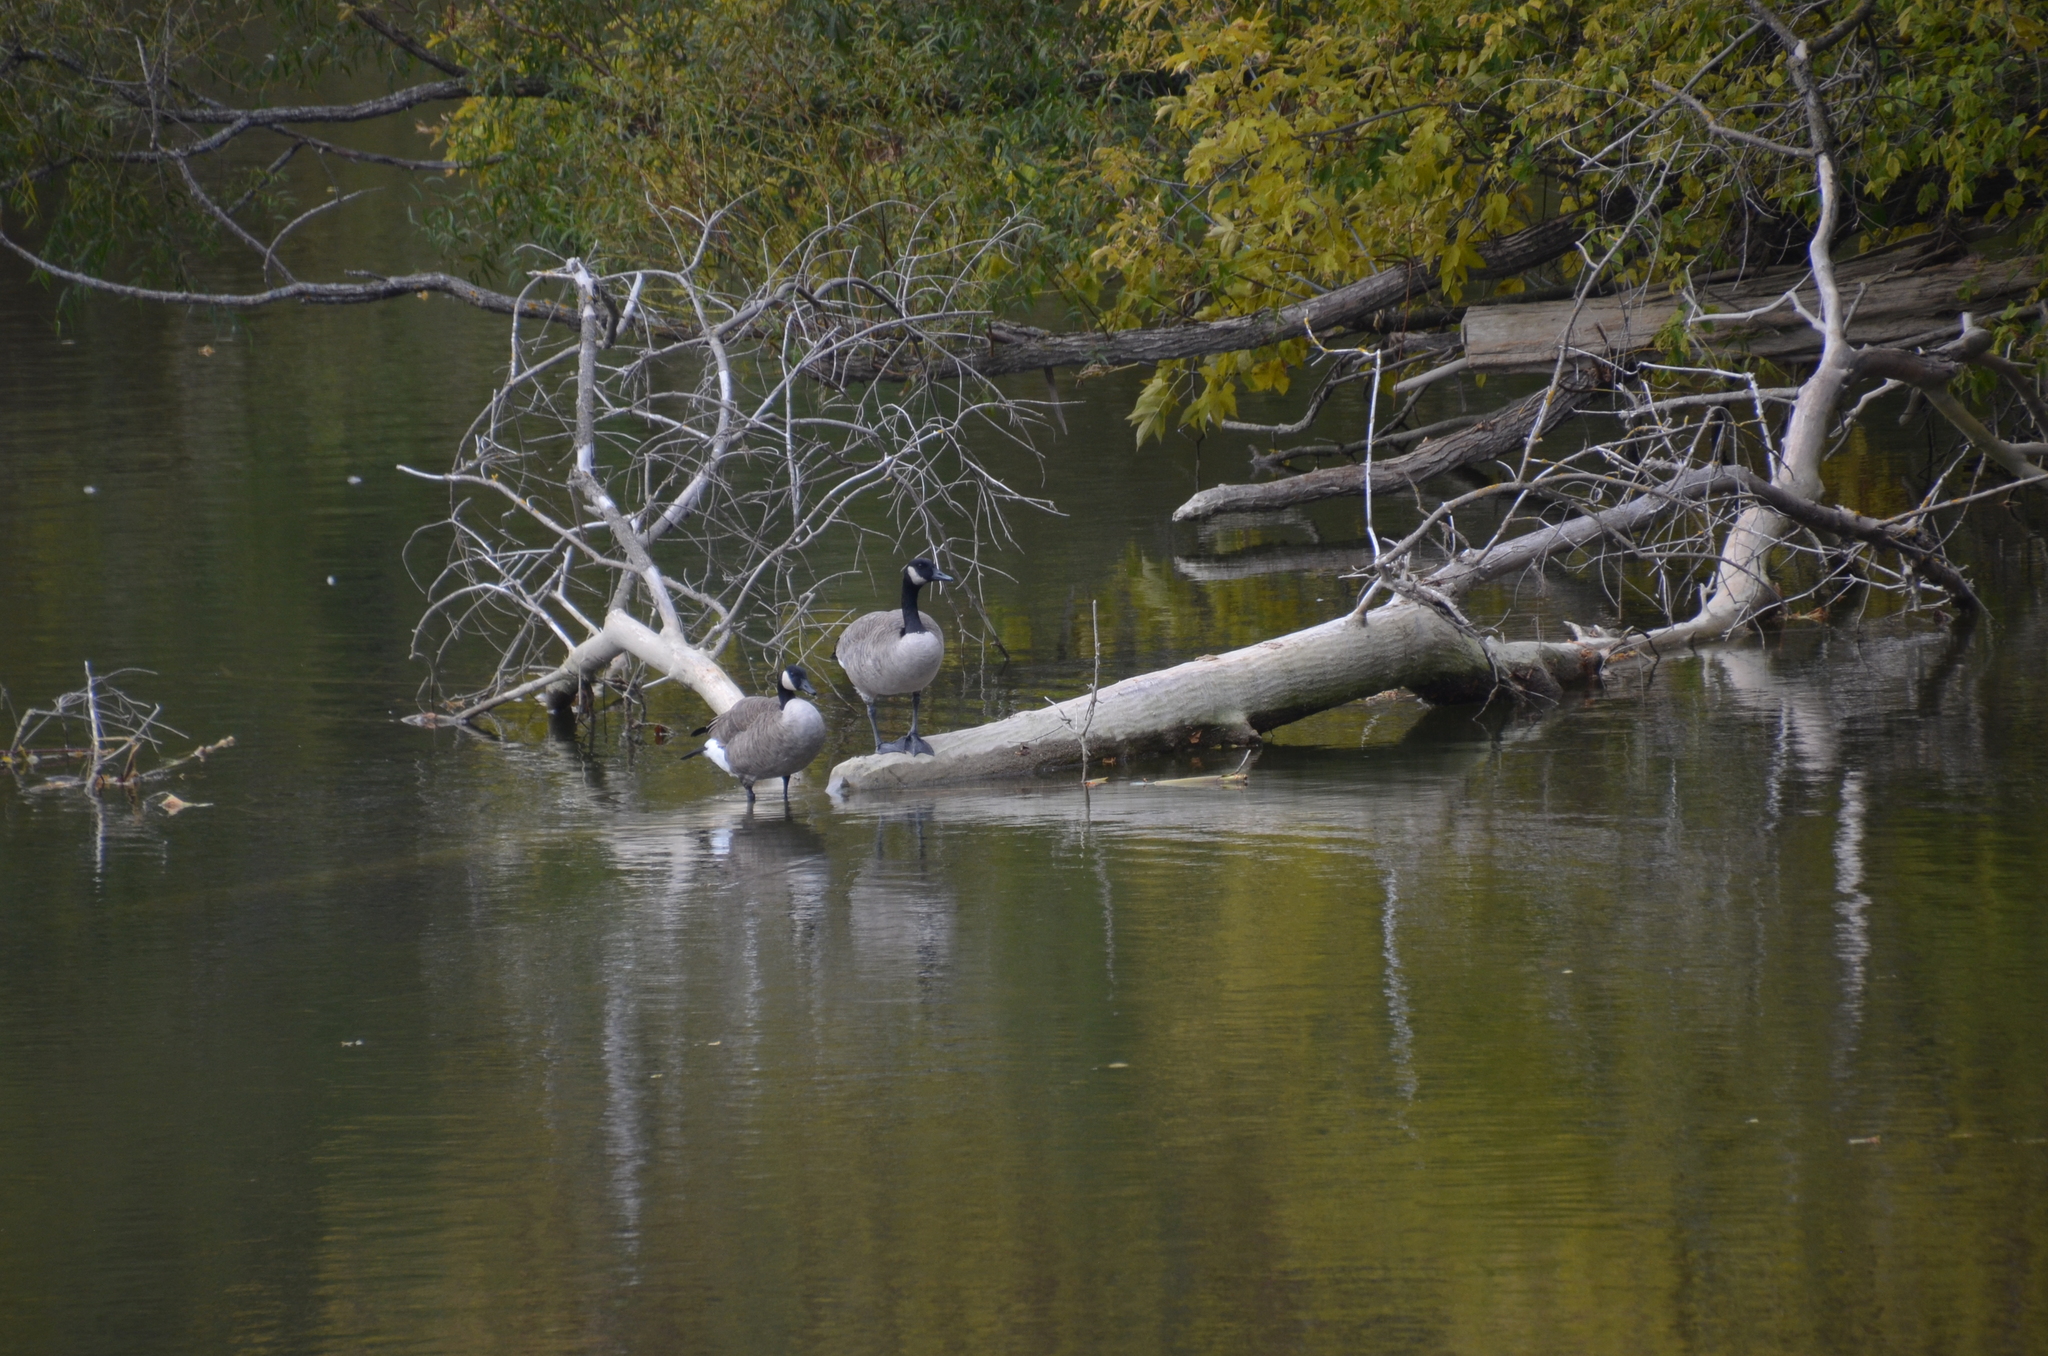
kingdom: Animalia
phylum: Chordata
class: Aves
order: Anseriformes
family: Anatidae
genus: Branta
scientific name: Branta canadensis
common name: Canada goose
